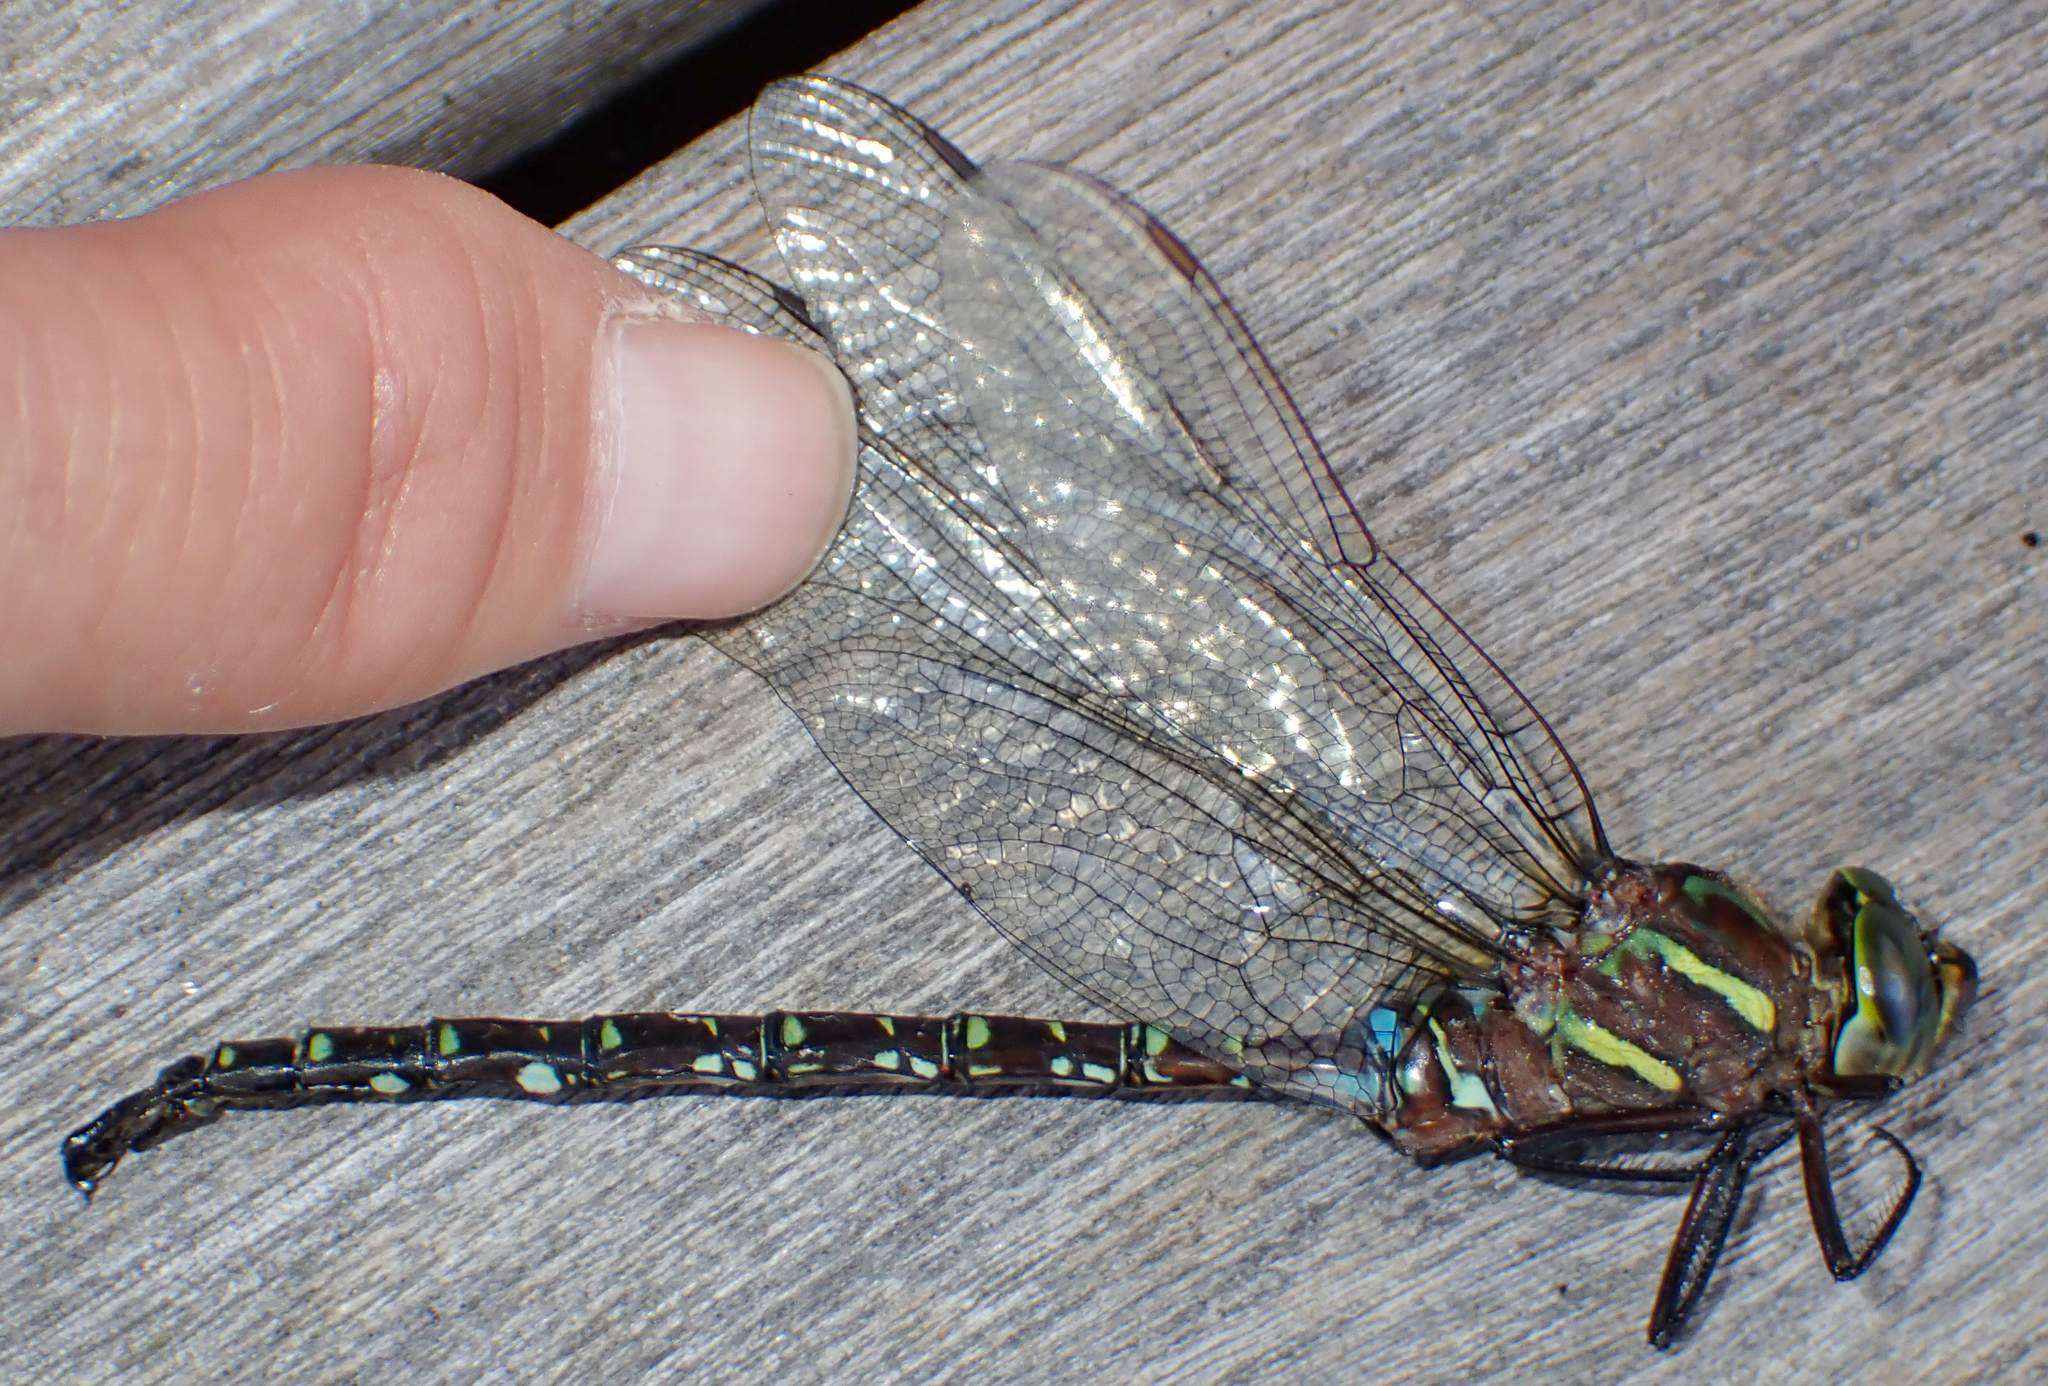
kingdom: Animalia
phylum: Arthropoda
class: Insecta
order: Odonata
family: Aeshnidae
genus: Aeshna
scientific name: Aeshna umbrosa
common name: Shadow darner
